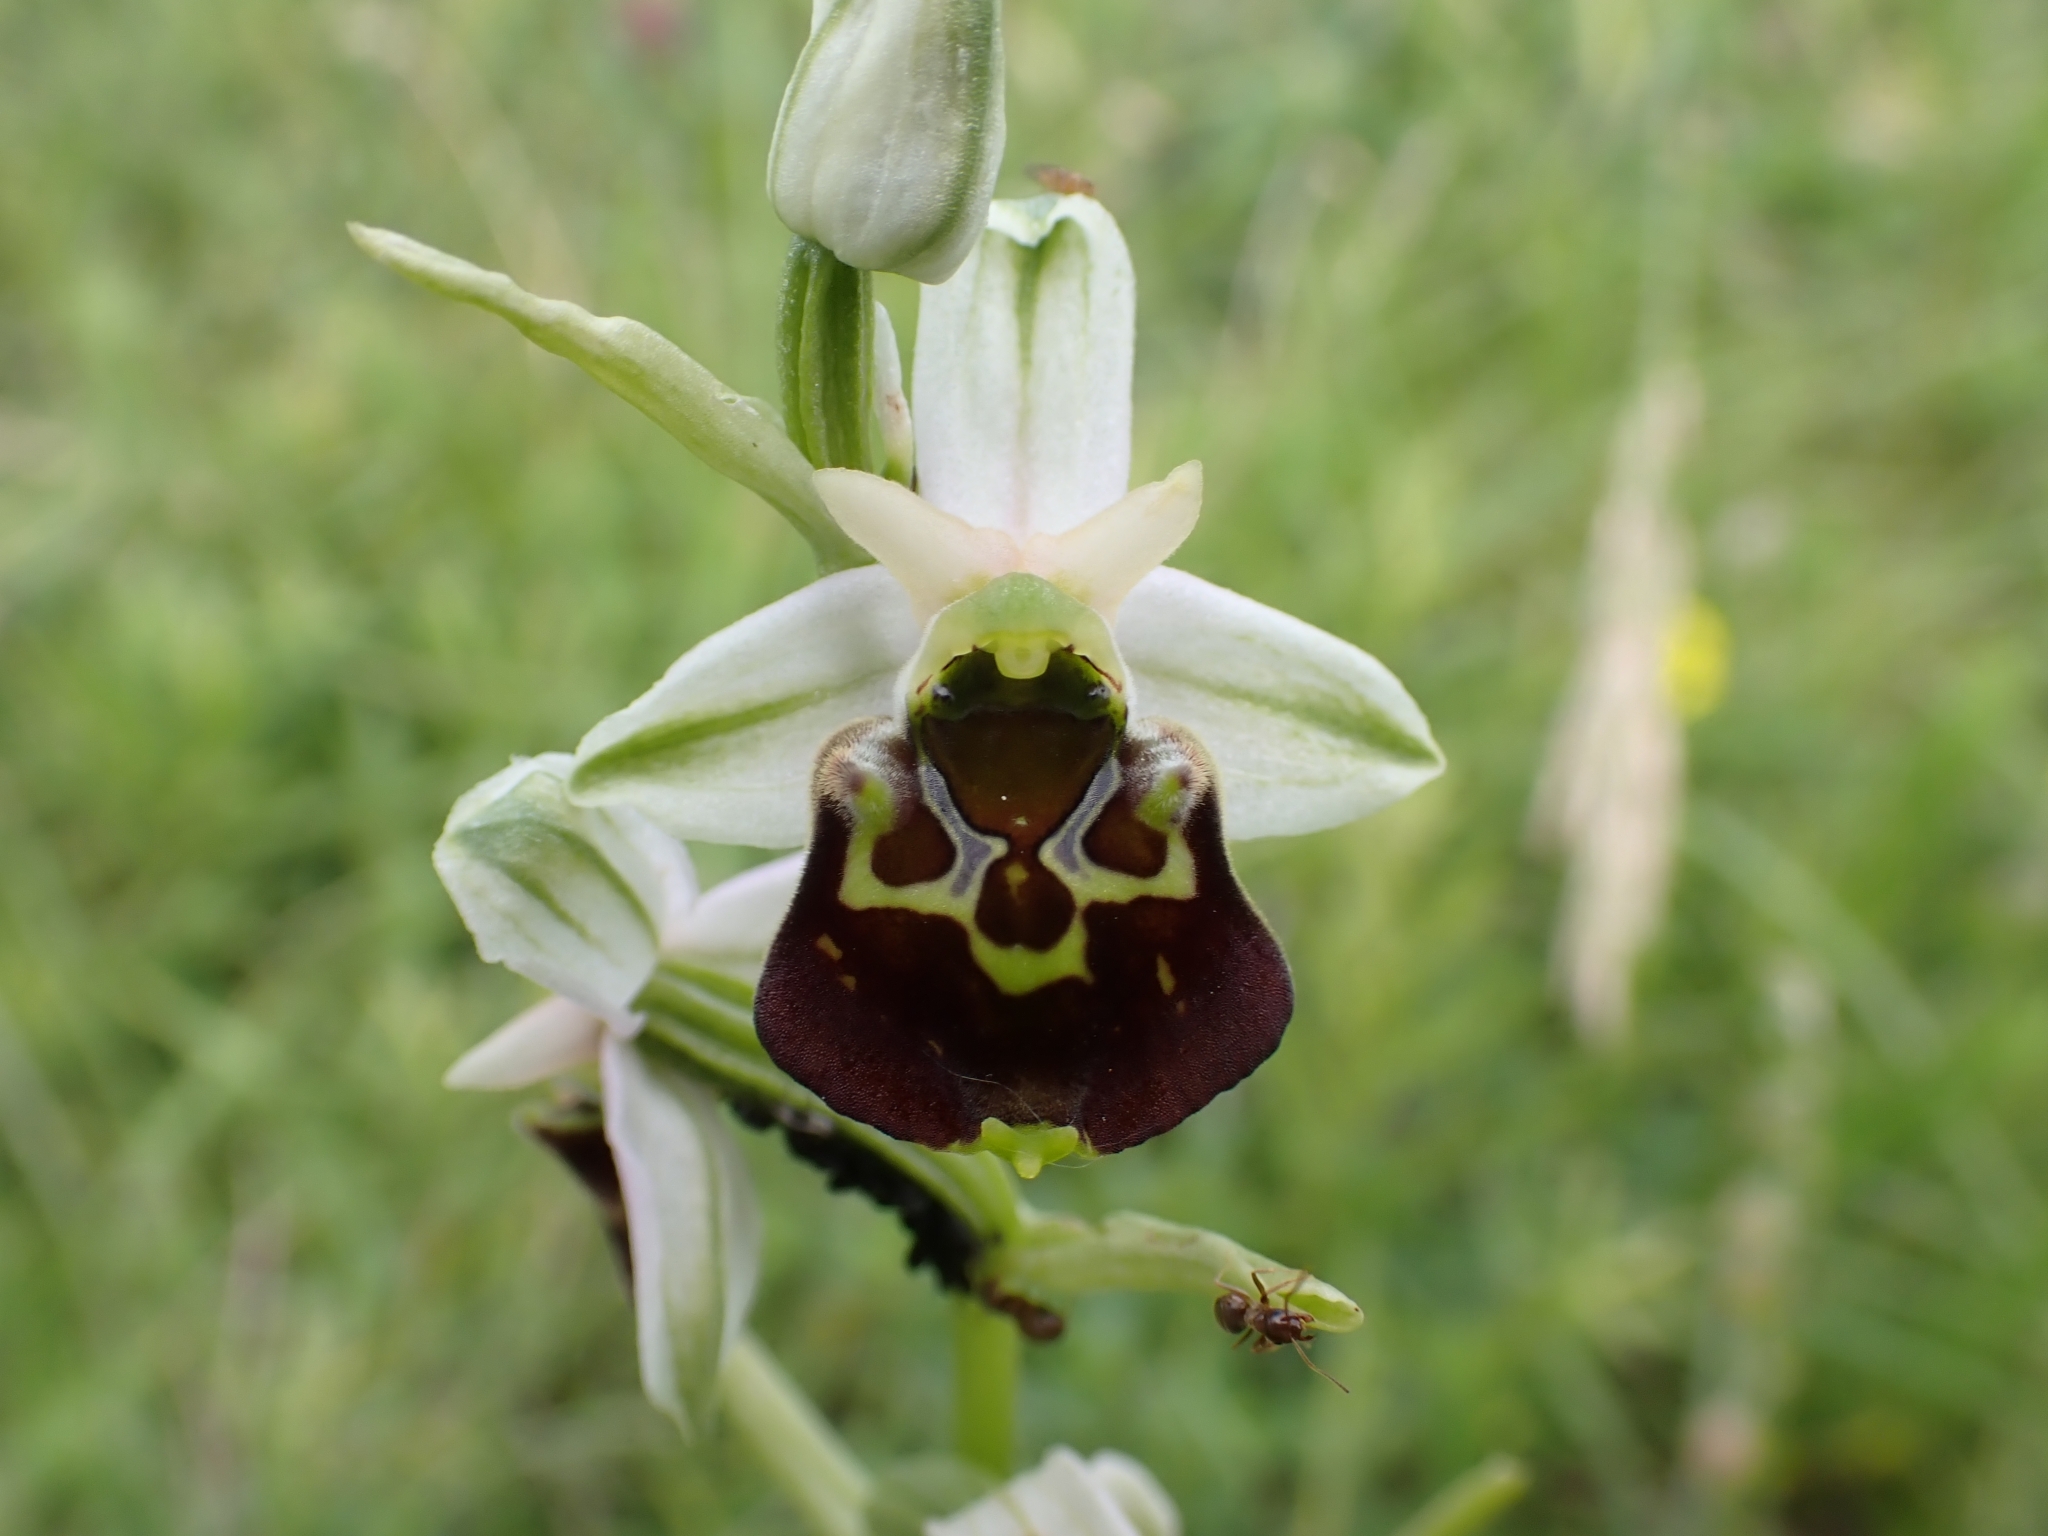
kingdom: Plantae
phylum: Tracheophyta
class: Liliopsida
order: Asparagales
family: Orchidaceae
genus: Ophrys
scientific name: Ophrys holosericea
